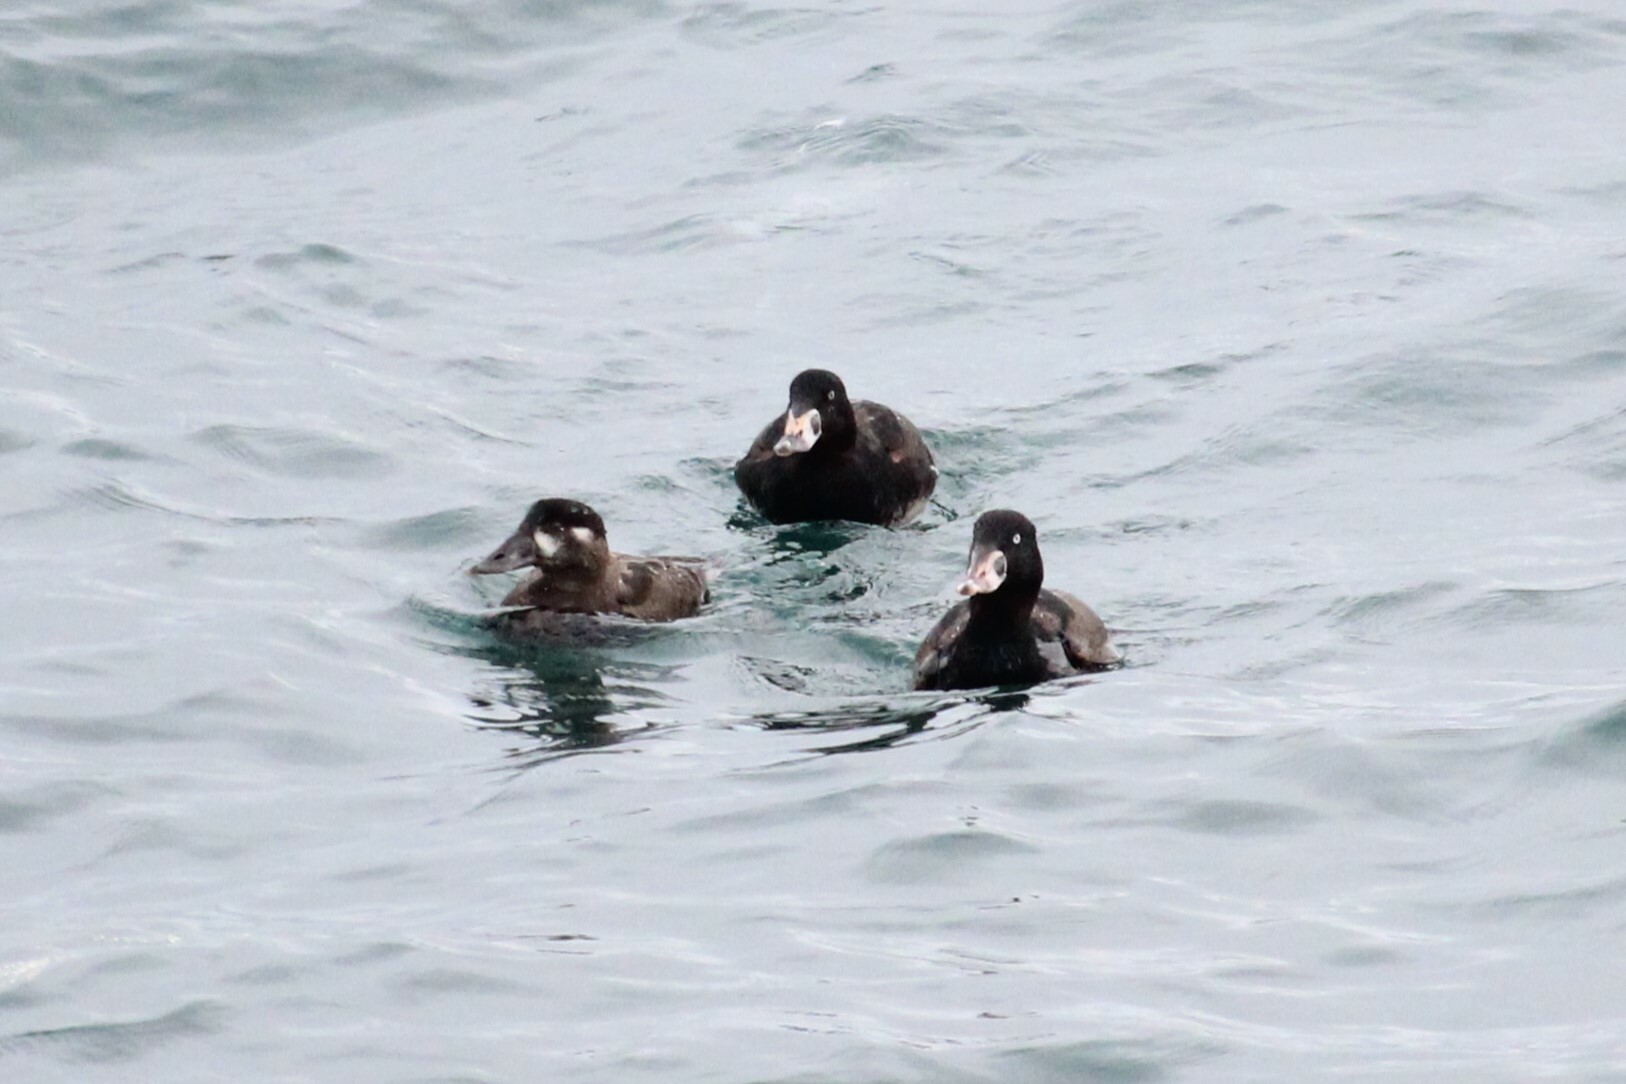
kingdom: Animalia
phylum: Chordata
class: Aves
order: Anseriformes
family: Anatidae
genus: Melanitta
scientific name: Melanitta perspicillata
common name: Surf scoter
